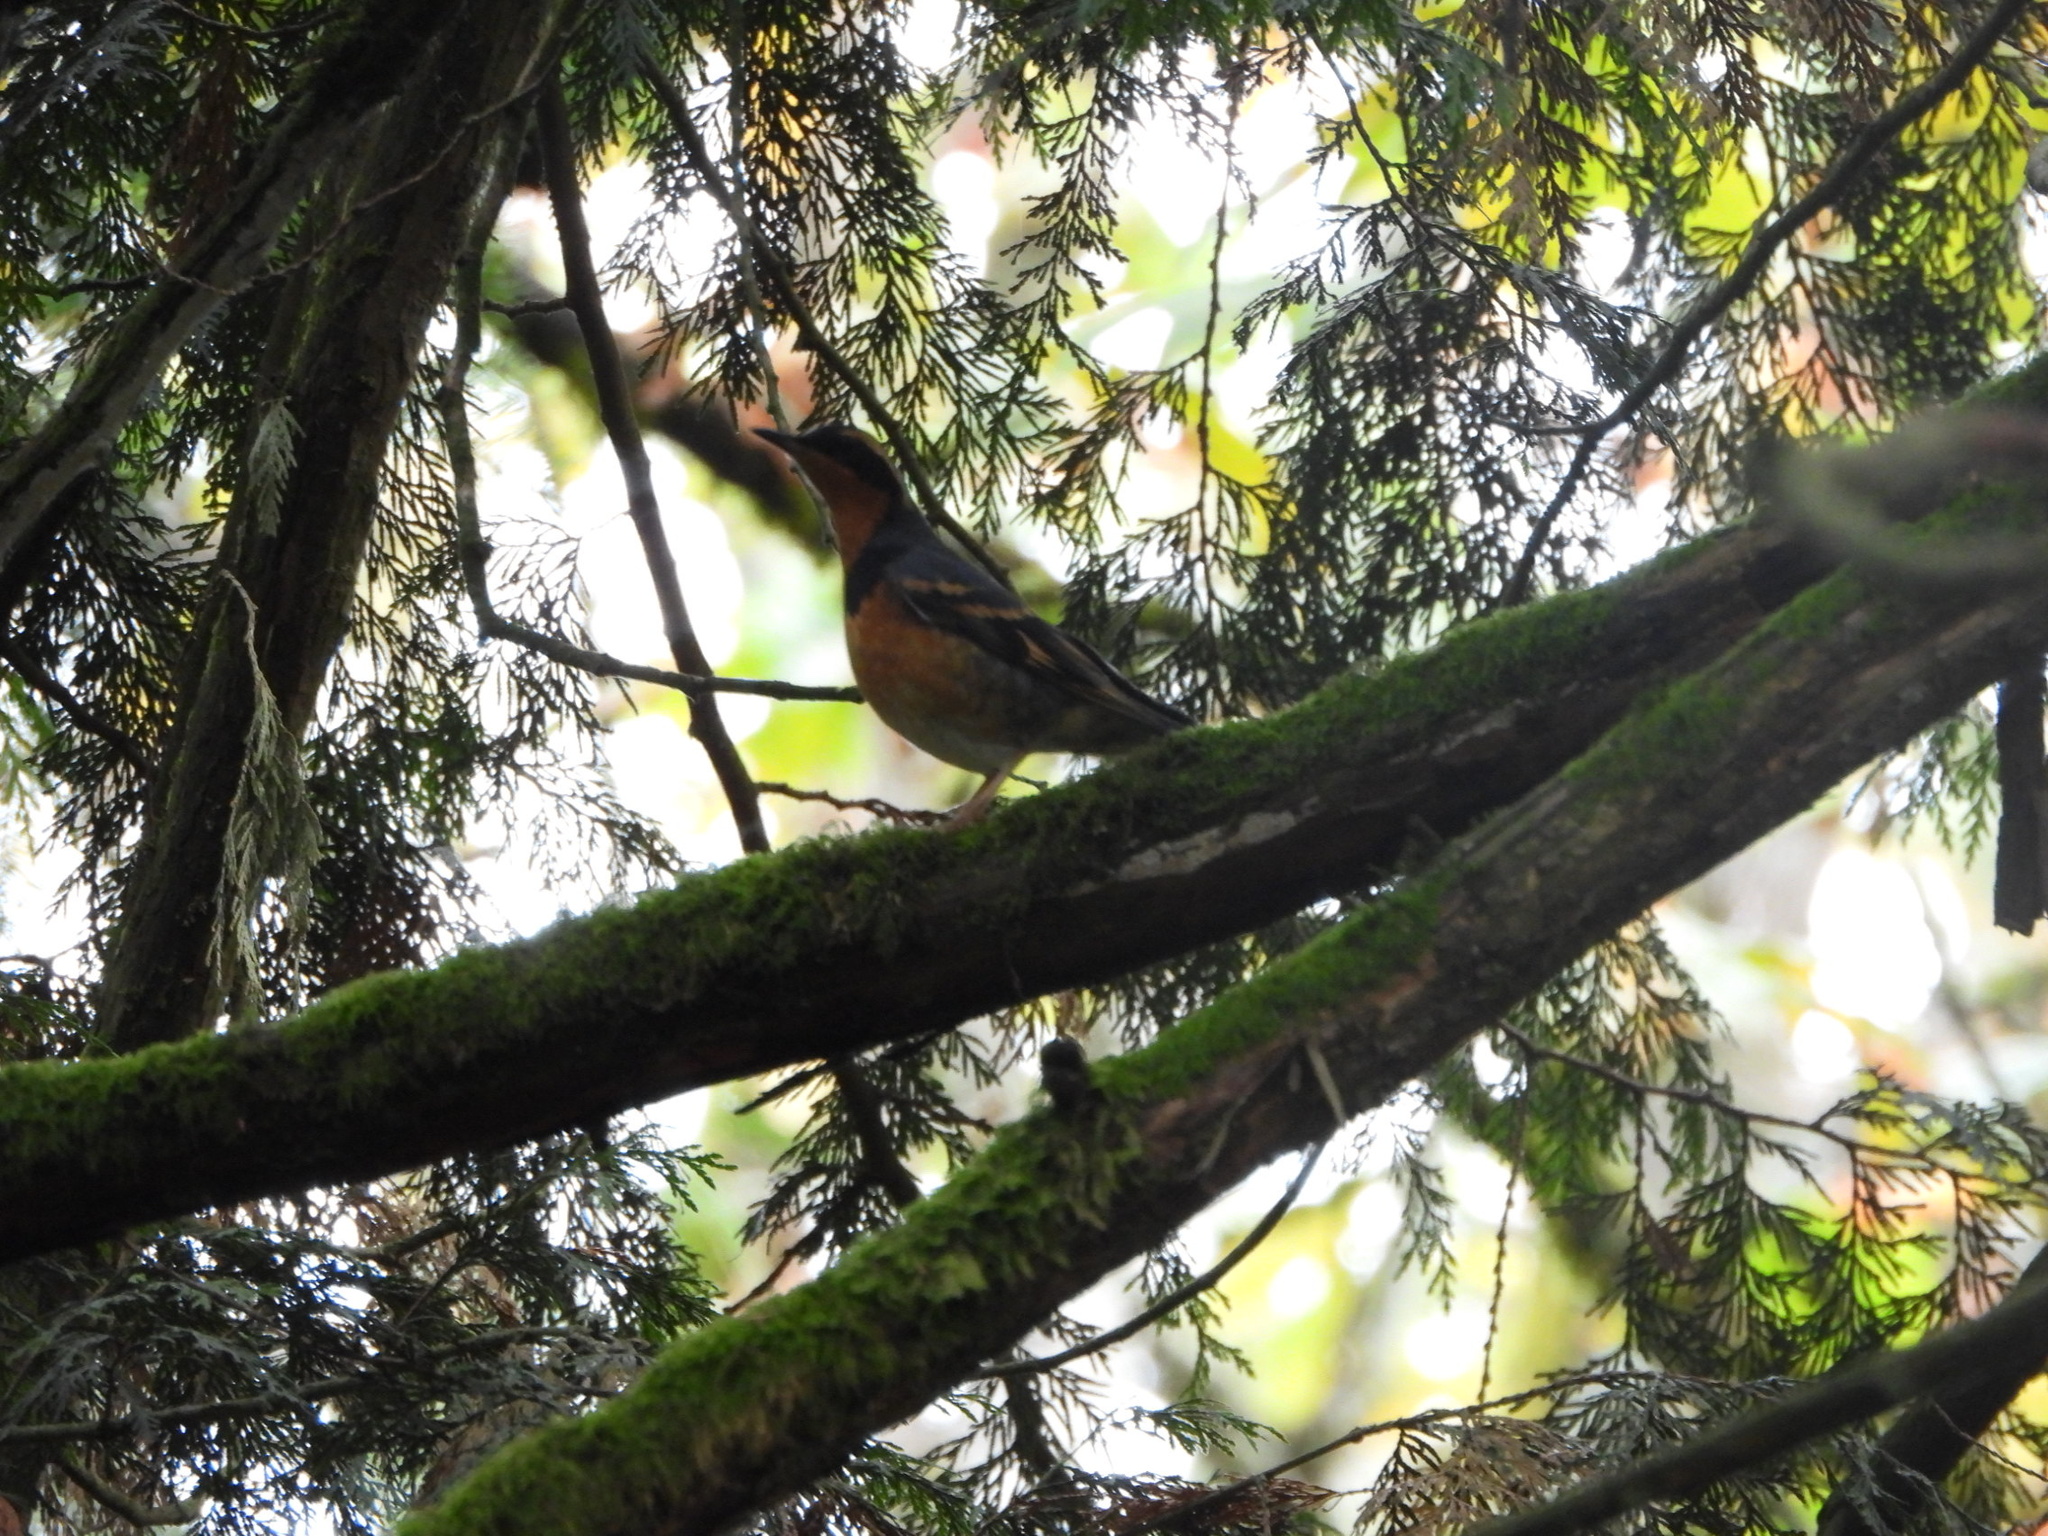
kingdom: Animalia
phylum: Chordata
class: Aves
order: Passeriformes
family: Turdidae
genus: Ixoreus
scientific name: Ixoreus naevius
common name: Varied thrush
